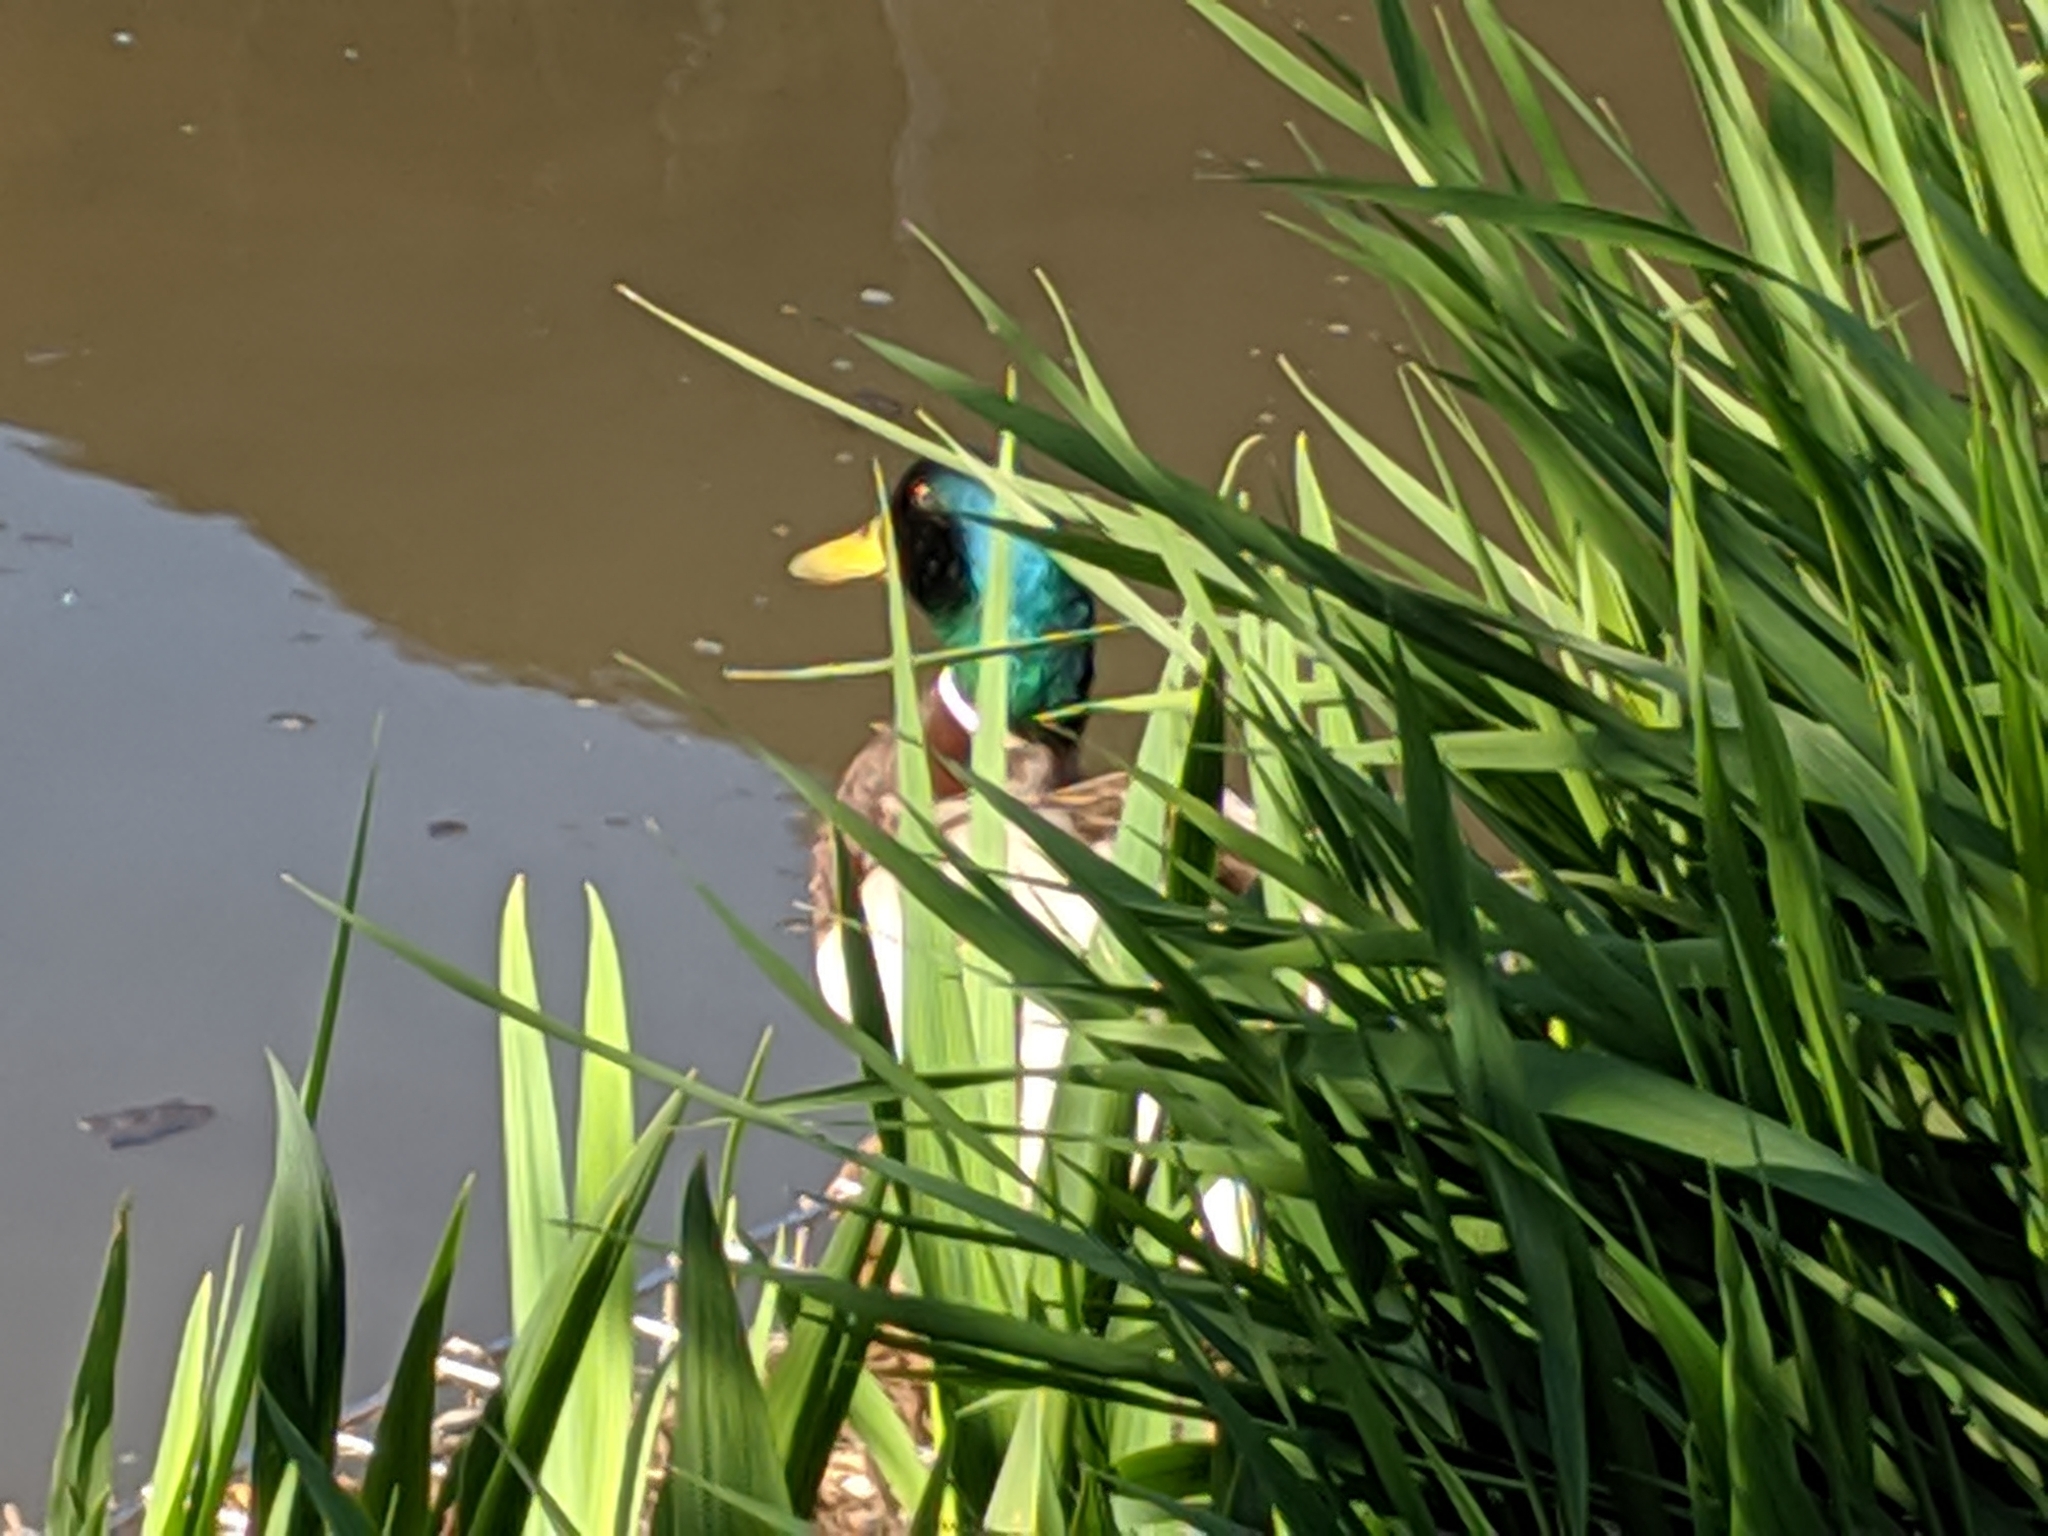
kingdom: Animalia
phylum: Chordata
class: Aves
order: Anseriformes
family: Anatidae
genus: Anas
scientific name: Anas platyrhynchos
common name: Mallard
